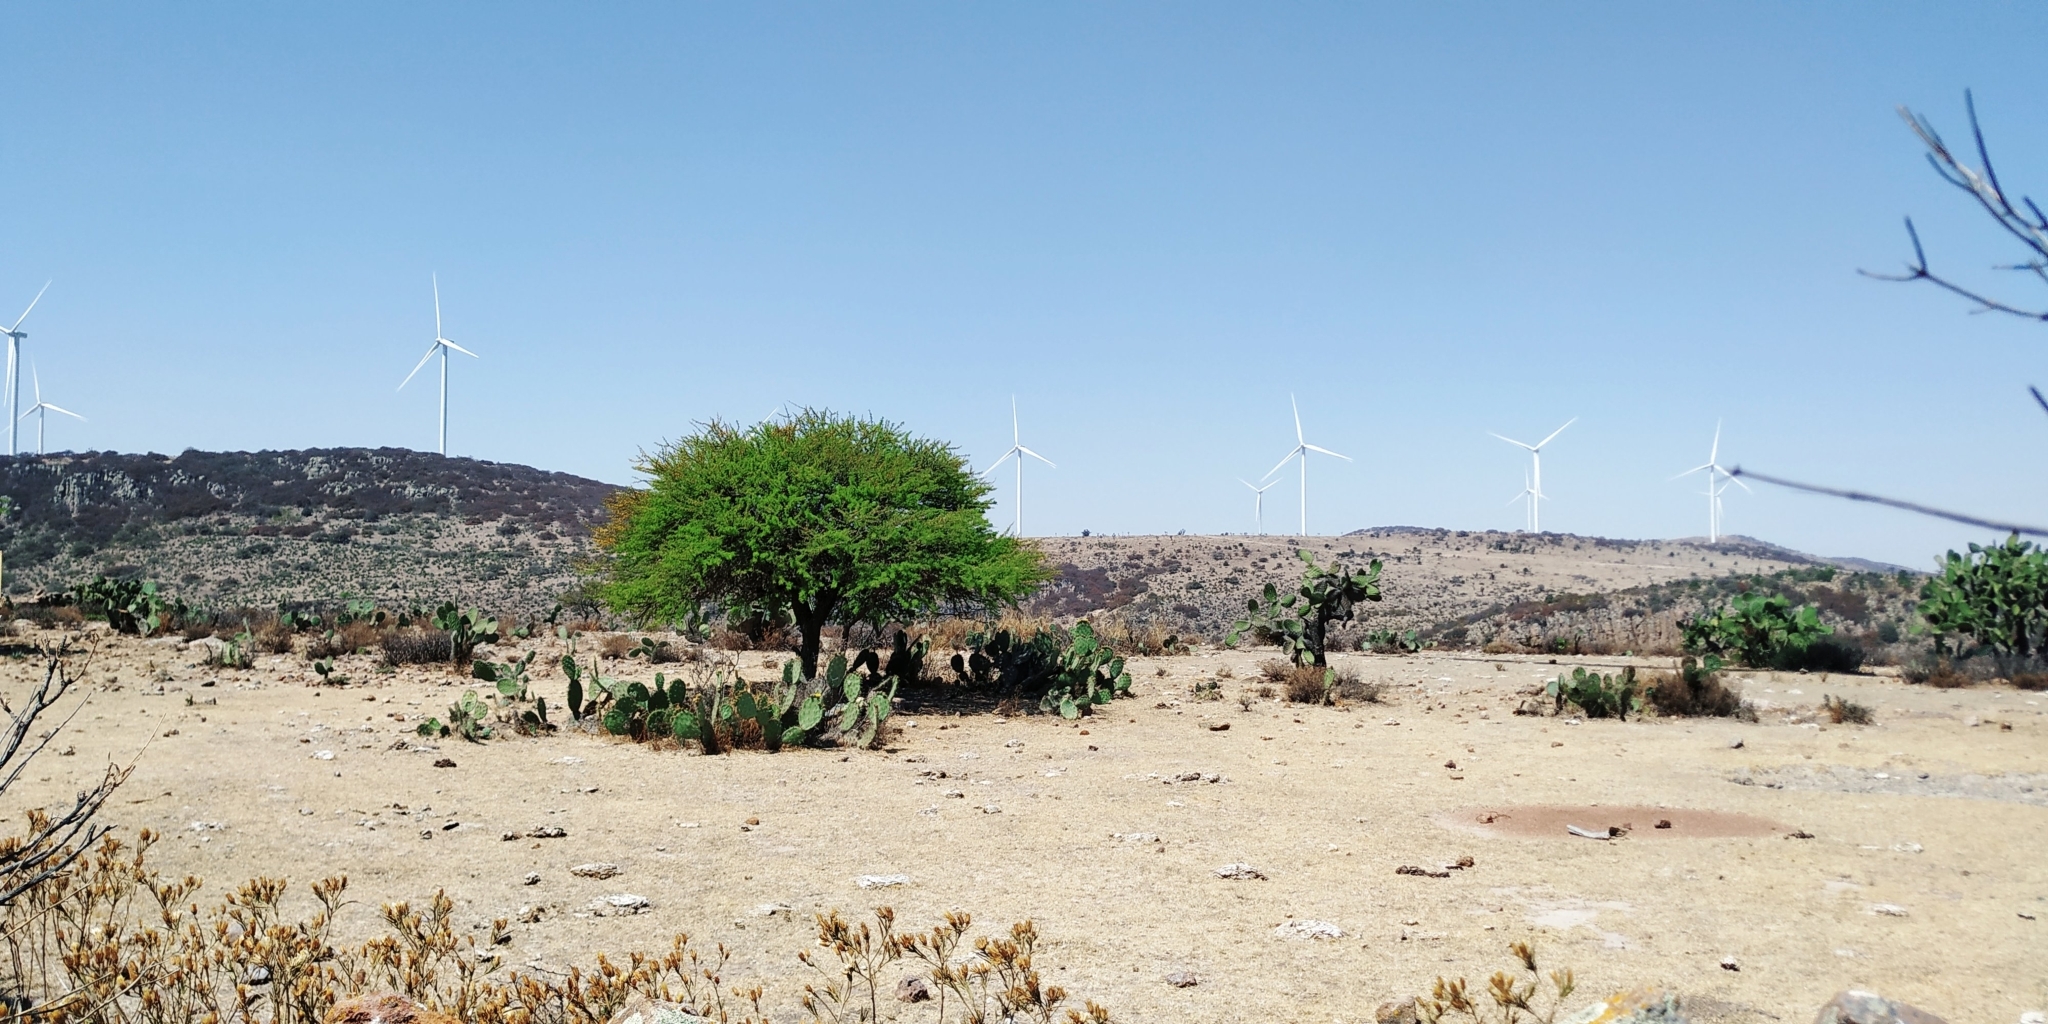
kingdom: Plantae
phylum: Tracheophyta
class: Magnoliopsida
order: Fabales
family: Fabaceae
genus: Vachellia
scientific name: Vachellia schaffneri
